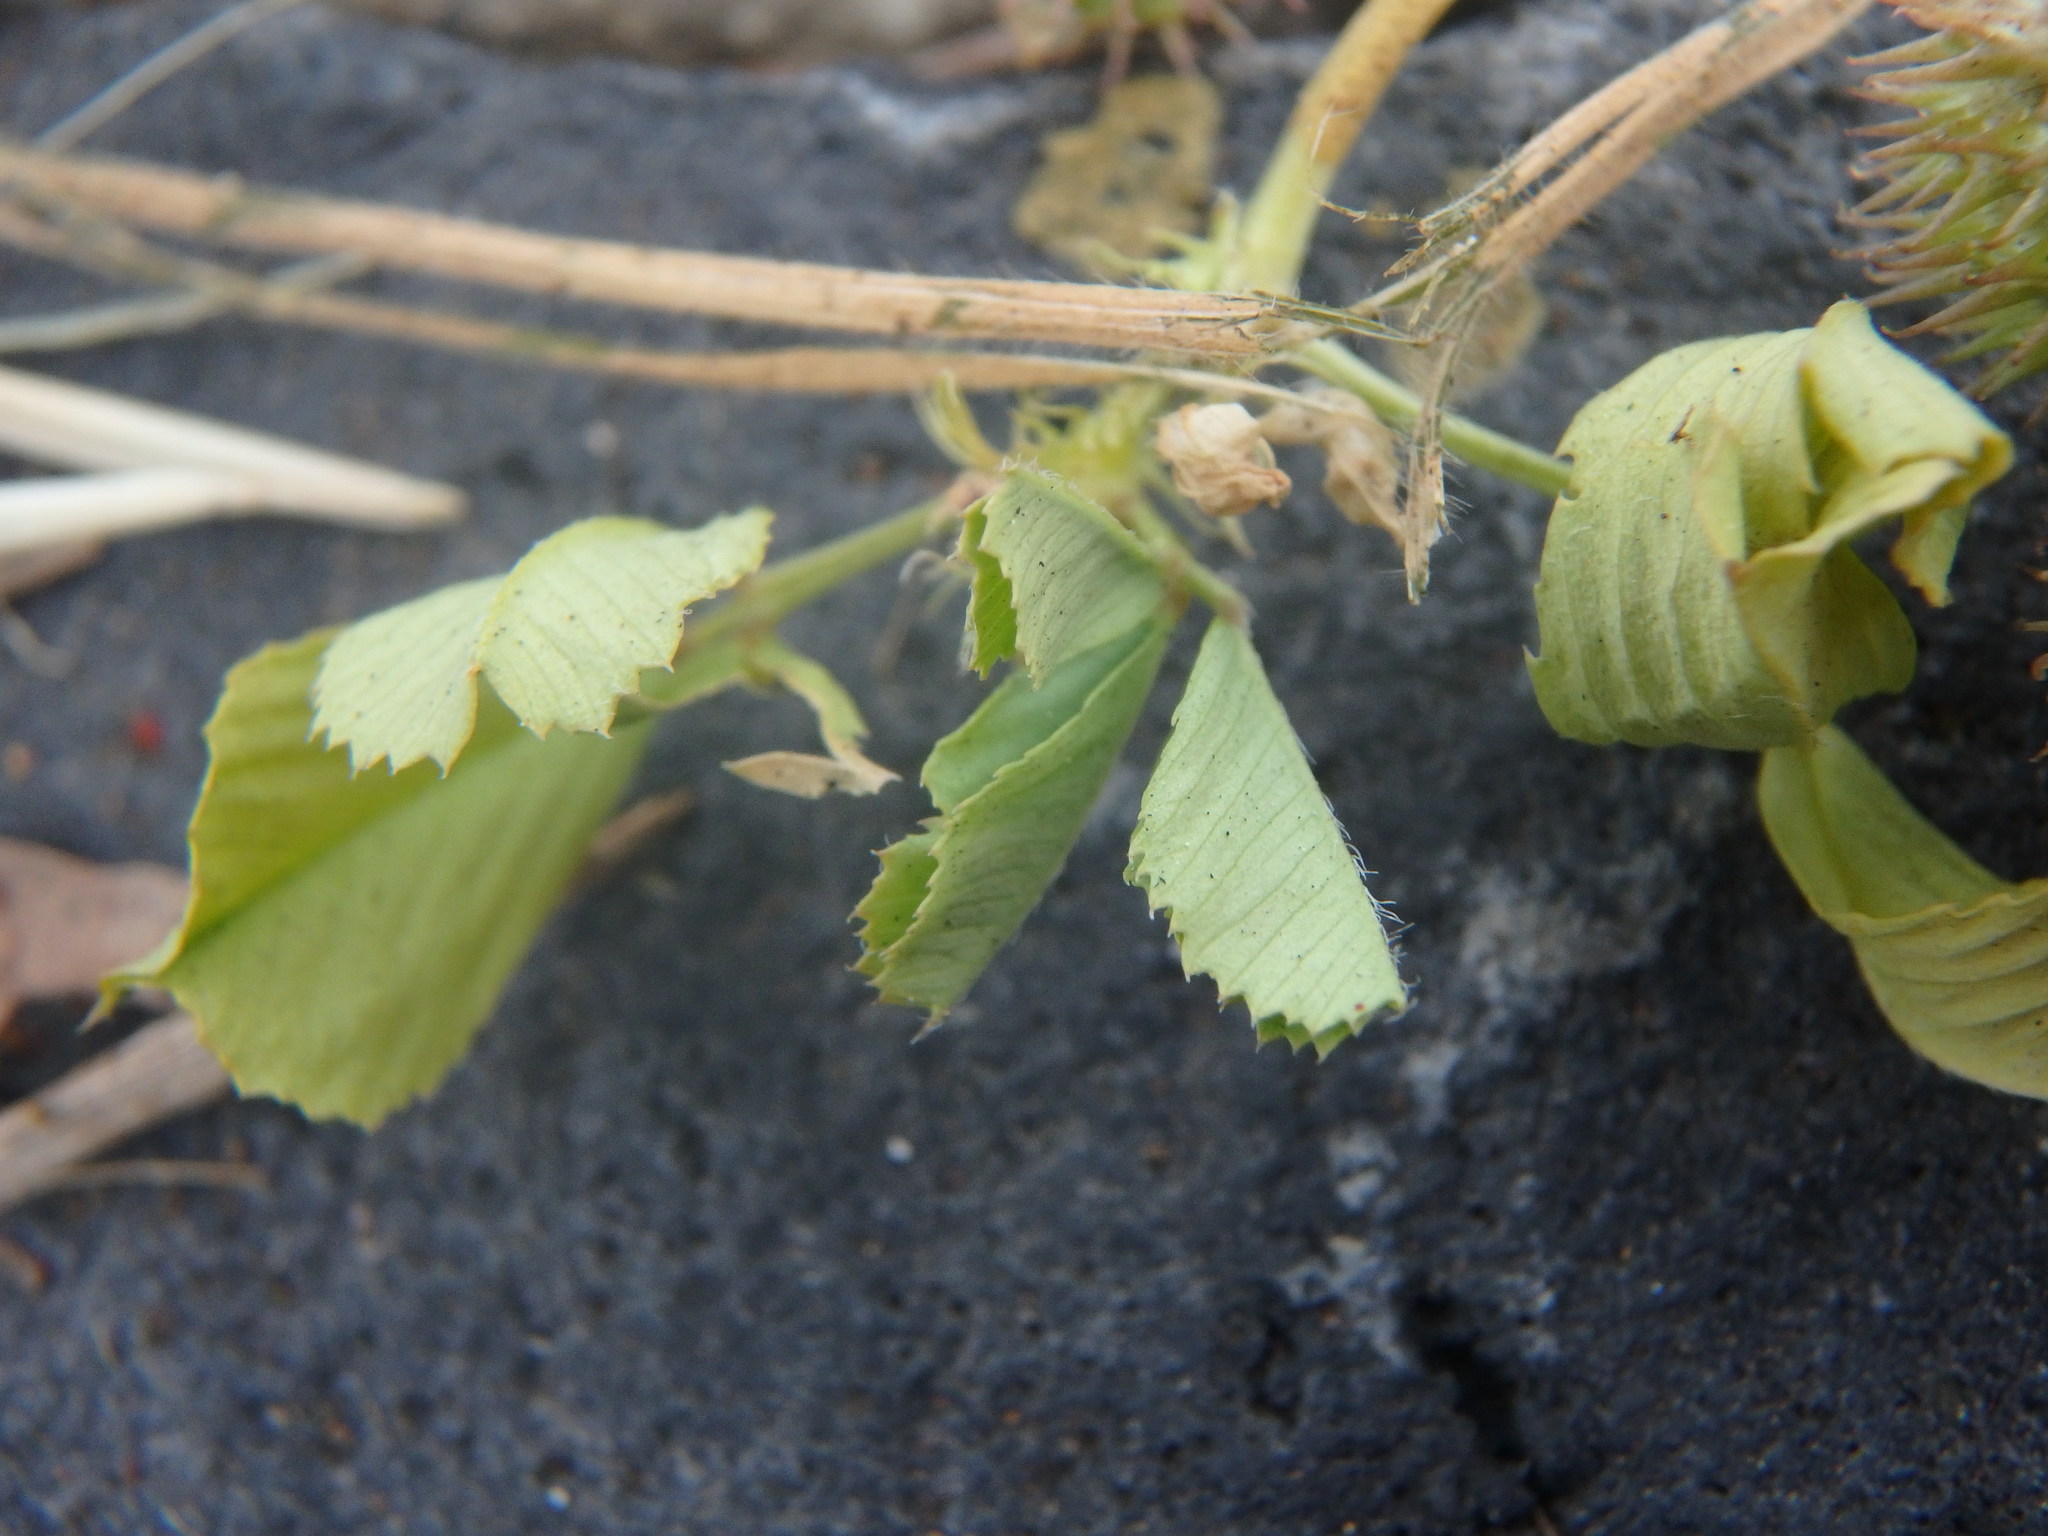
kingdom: Plantae
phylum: Tracheophyta
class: Magnoliopsida
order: Fabales
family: Fabaceae
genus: Medicago
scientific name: Medicago polymorpha
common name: Burclover
